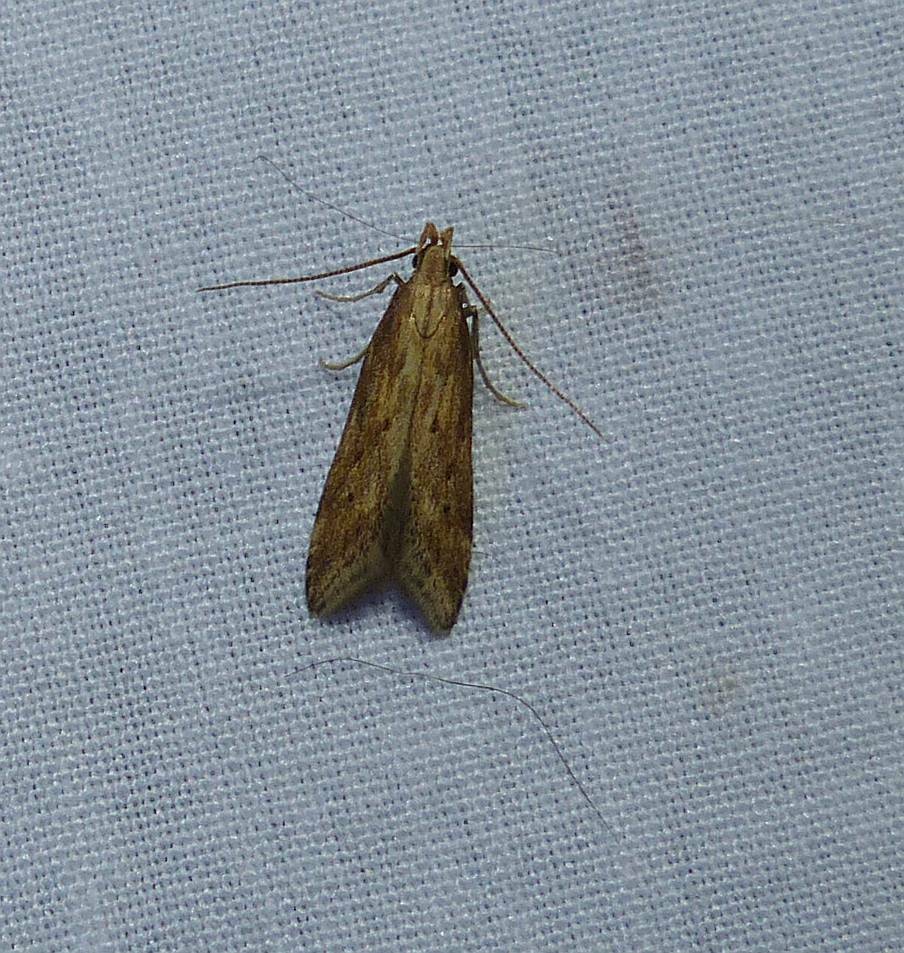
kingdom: Animalia
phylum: Arthropoda
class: Insecta
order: Lepidoptera
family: Gelechiidae
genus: Metzneria
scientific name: Metzneria lappella
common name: Burdock neb
